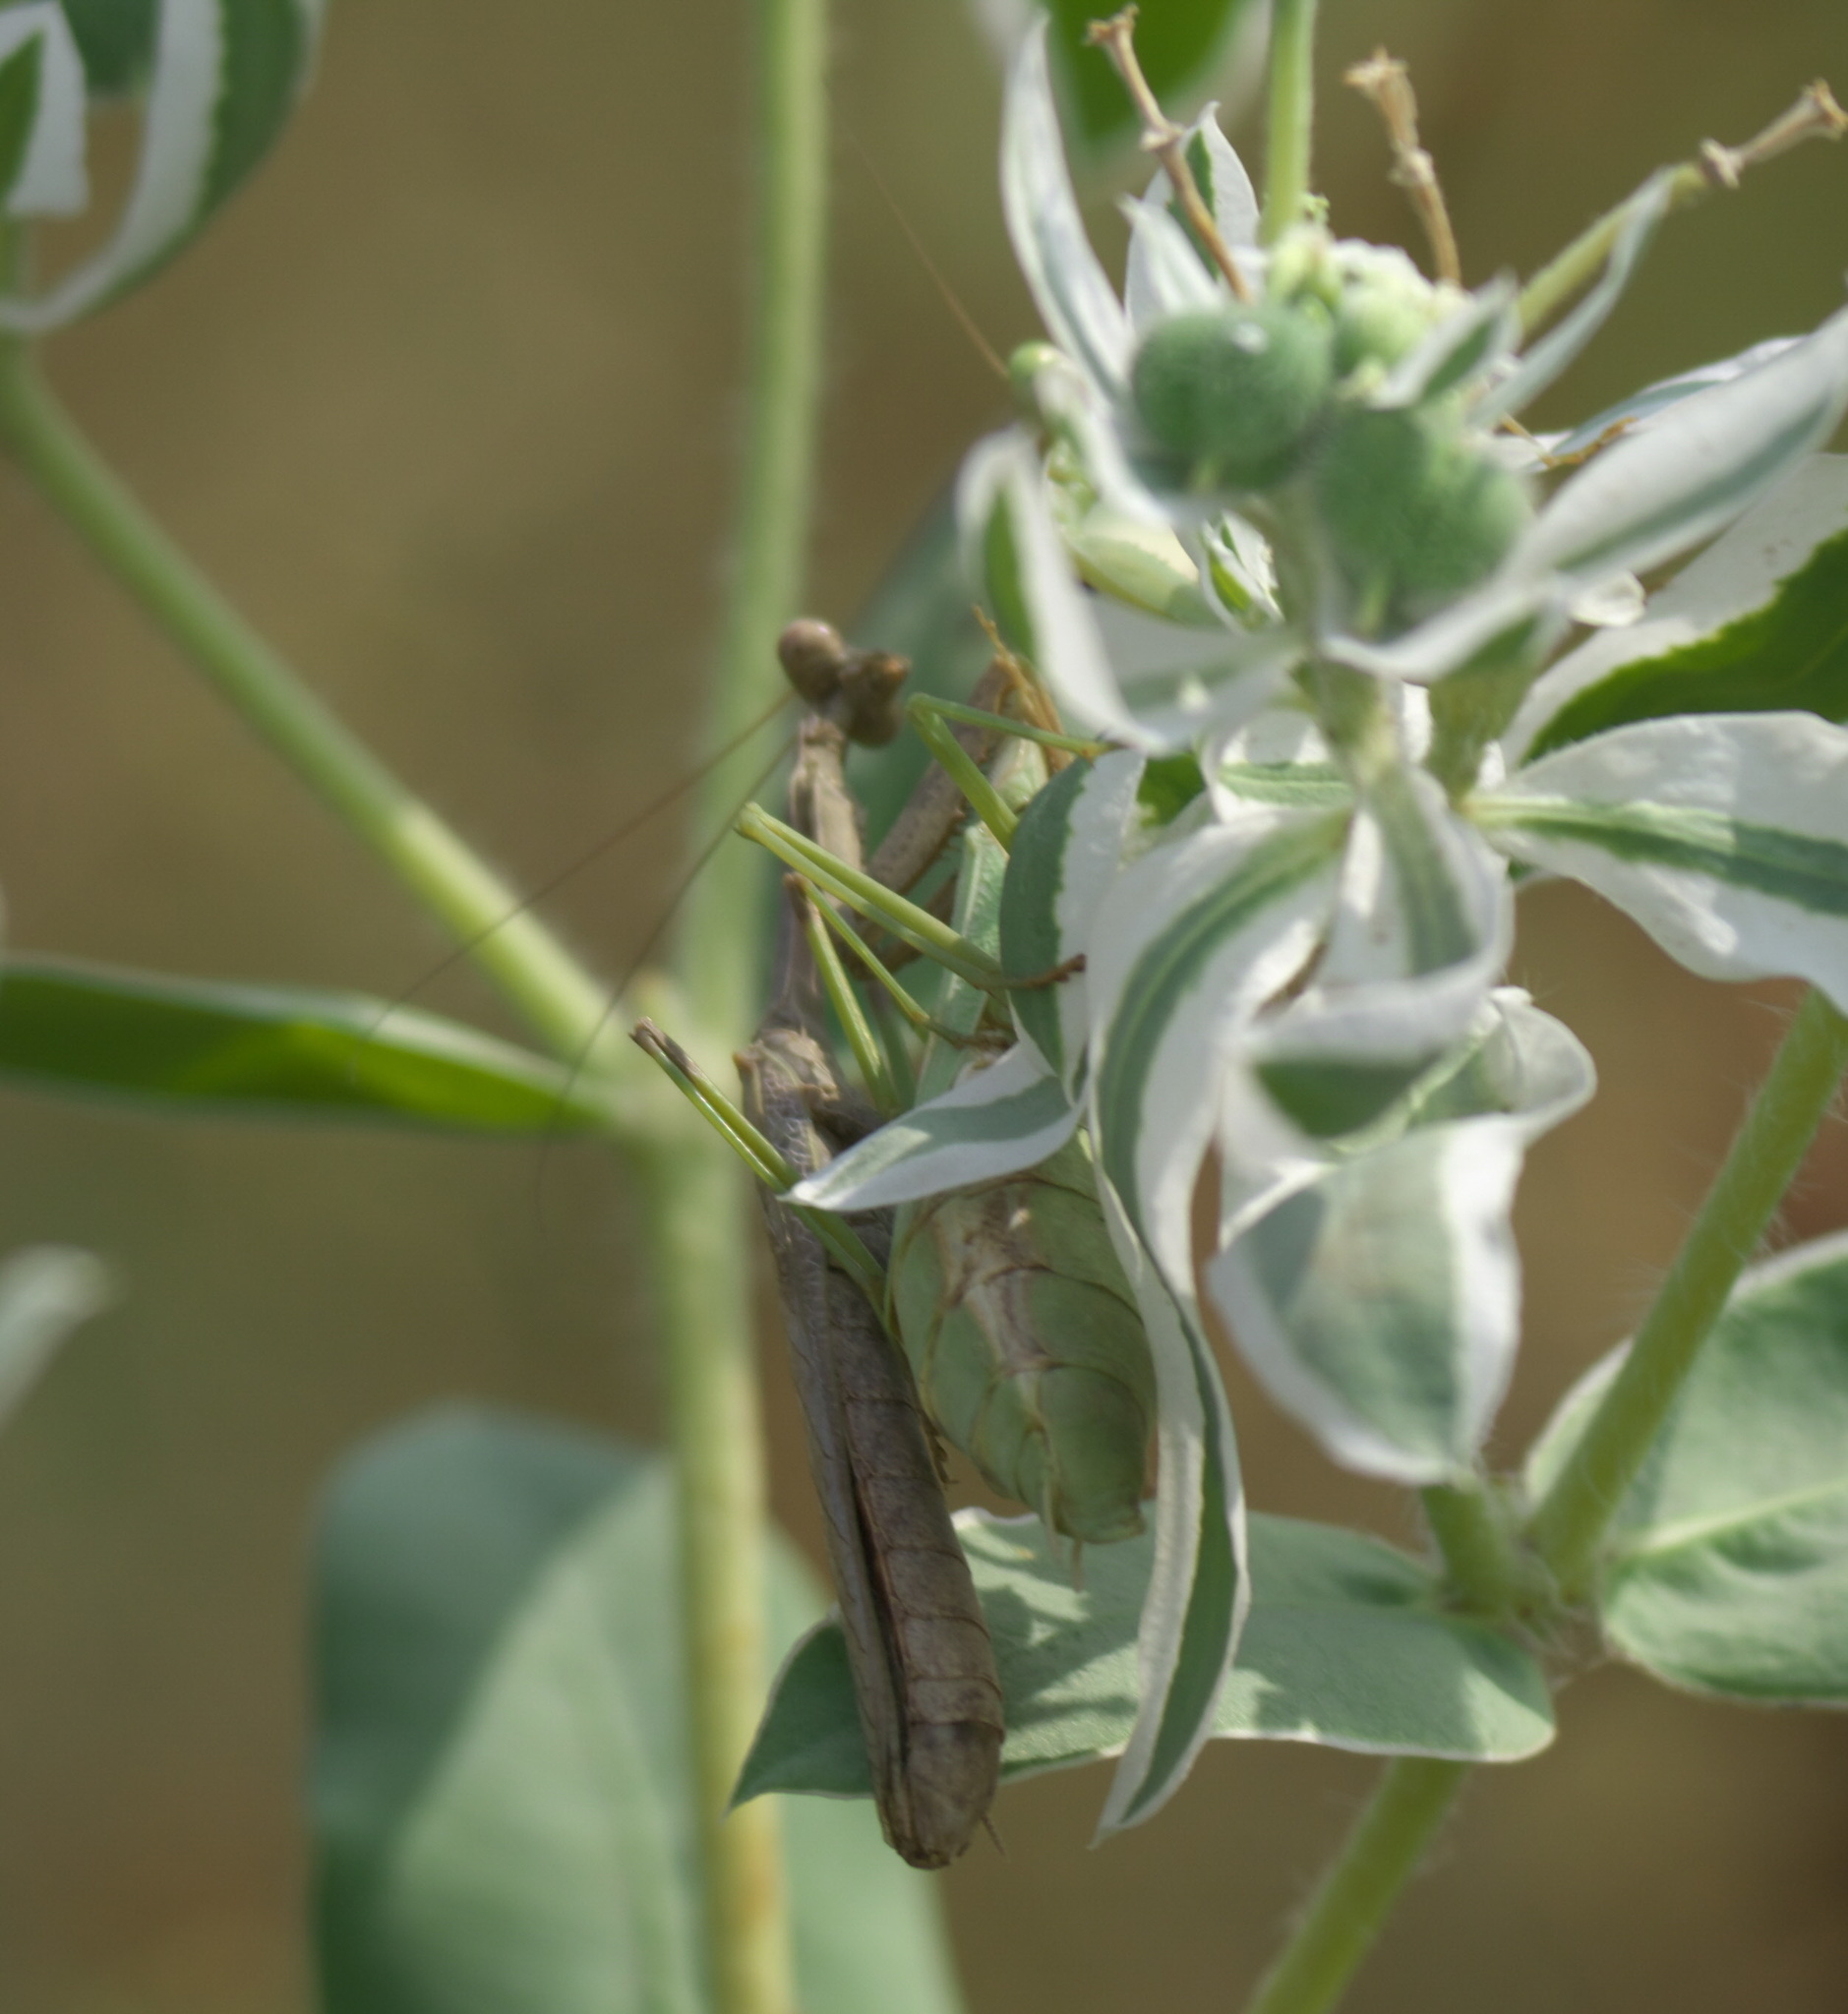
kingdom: Animalia
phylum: Arthropoda
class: Insecta
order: Mantodea
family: Mantidae
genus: Stagmomantis
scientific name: Stagmomantis carolina
